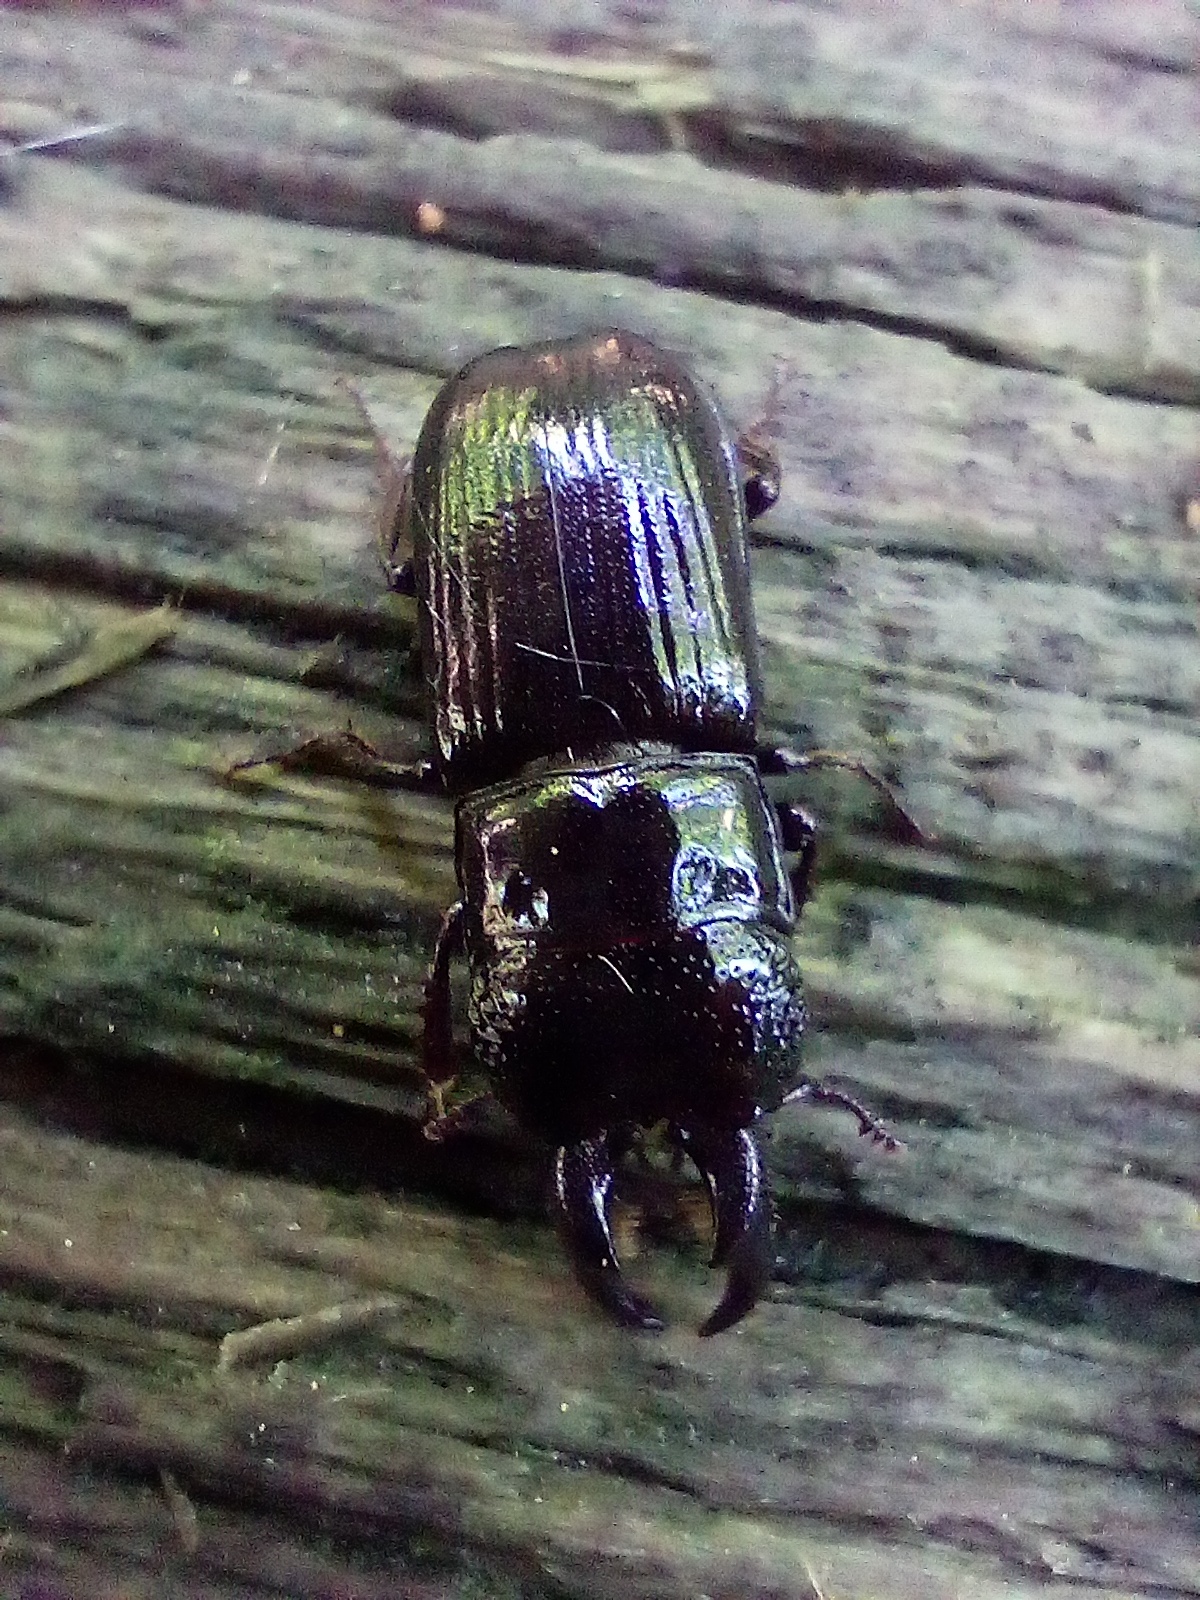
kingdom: Animalia
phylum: Arthropoda
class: Insecta
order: Coleoptera
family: Lucanidae
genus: Ceruchus
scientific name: Ceruchus chrysomelinus
